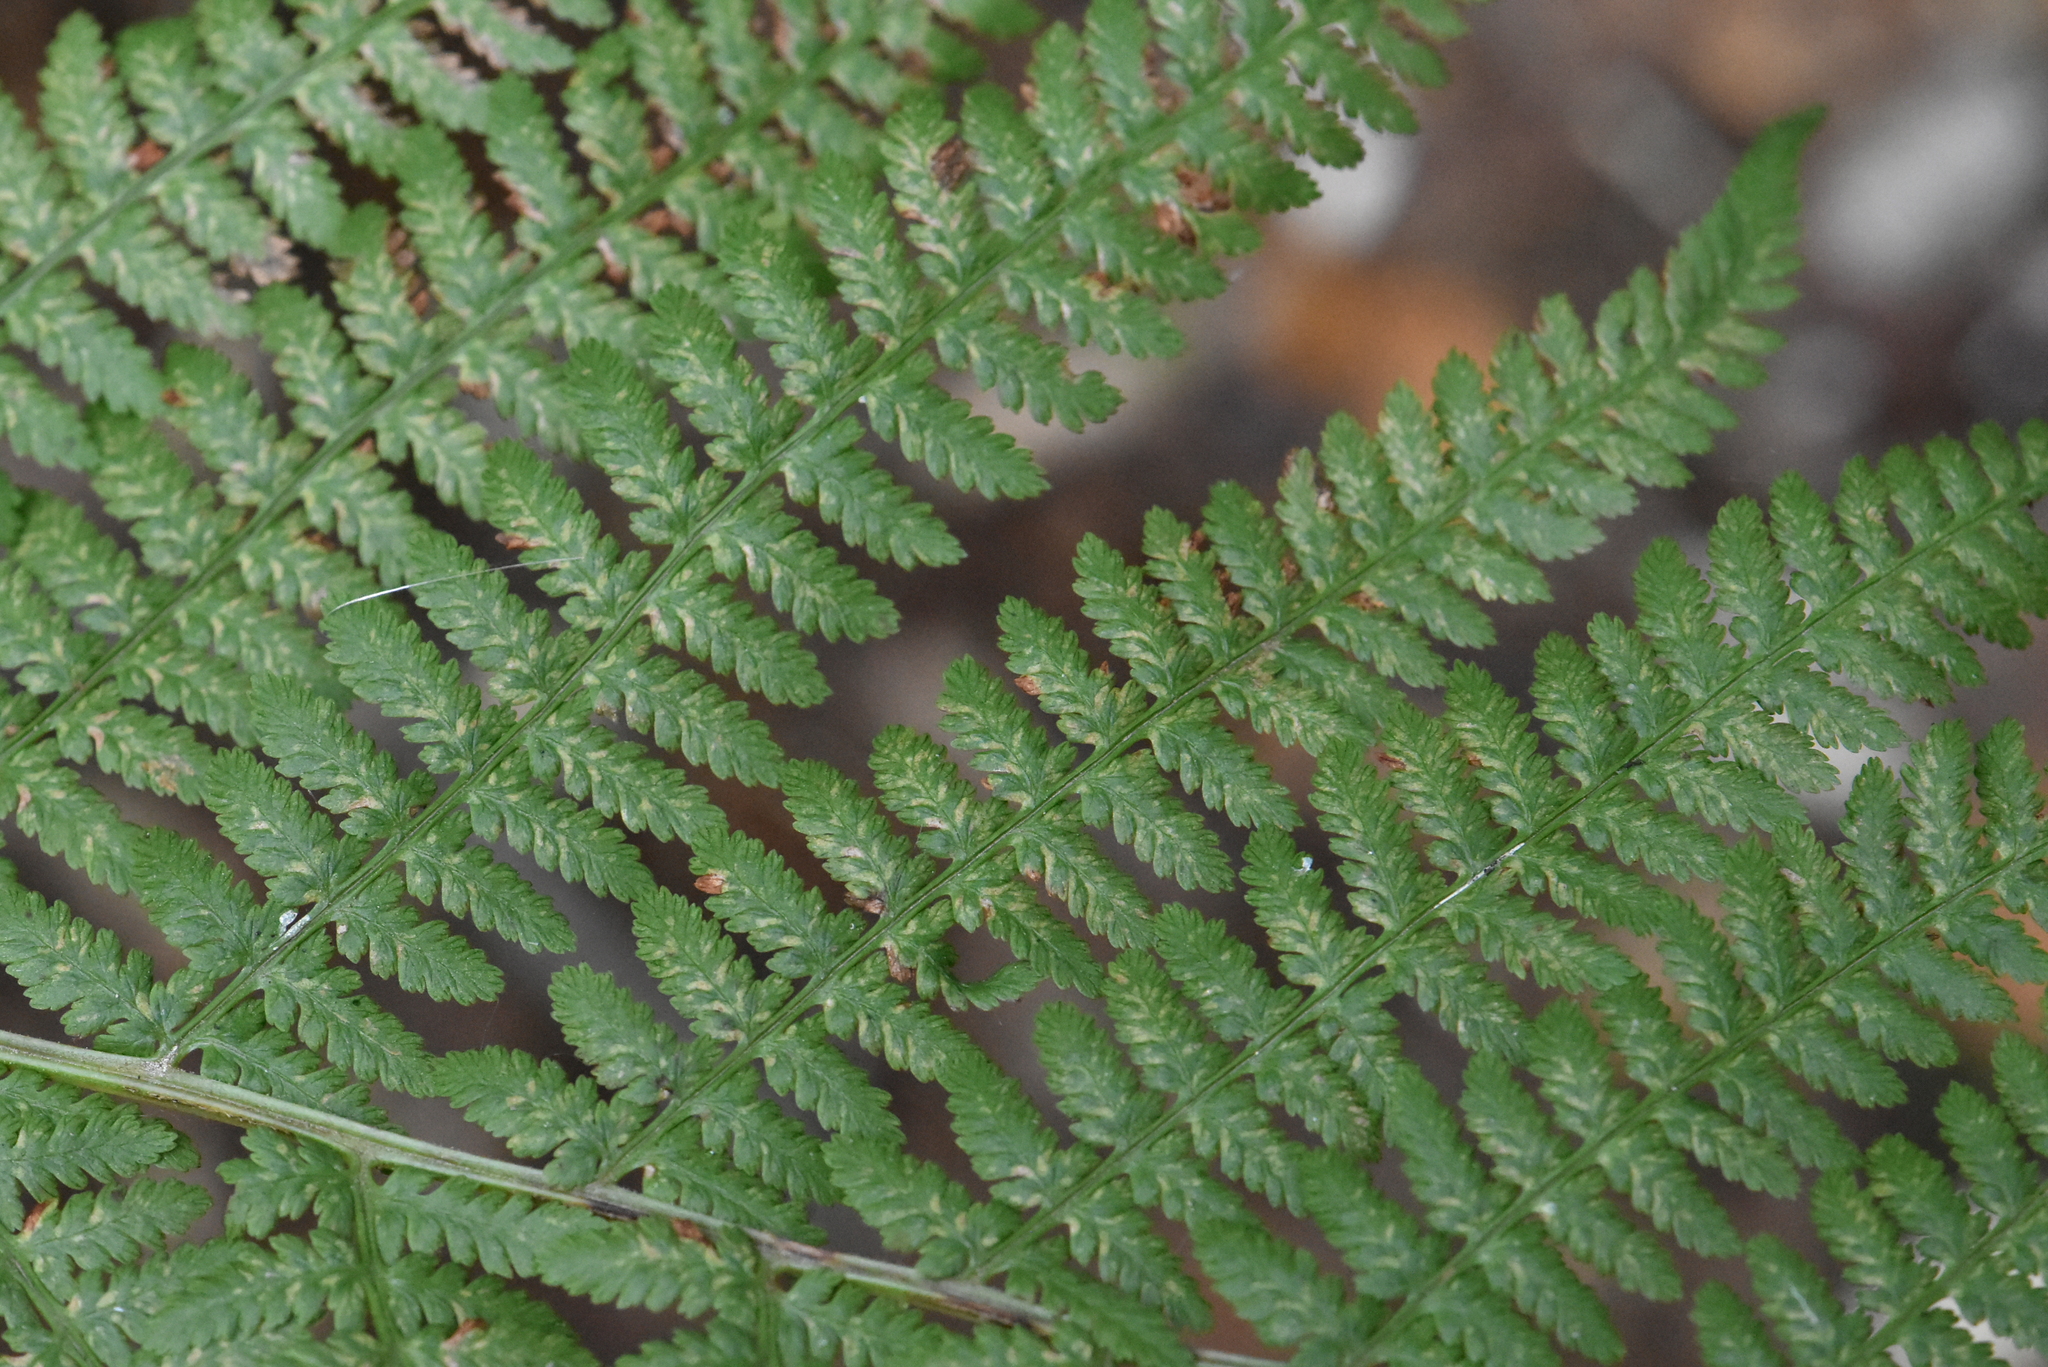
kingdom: Plantae
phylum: Tracheophyta
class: Polypodiopsida
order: Polypodiales
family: Athyriaceae
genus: Athyrium
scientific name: Athyrium filix-femina
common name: Lady fern
